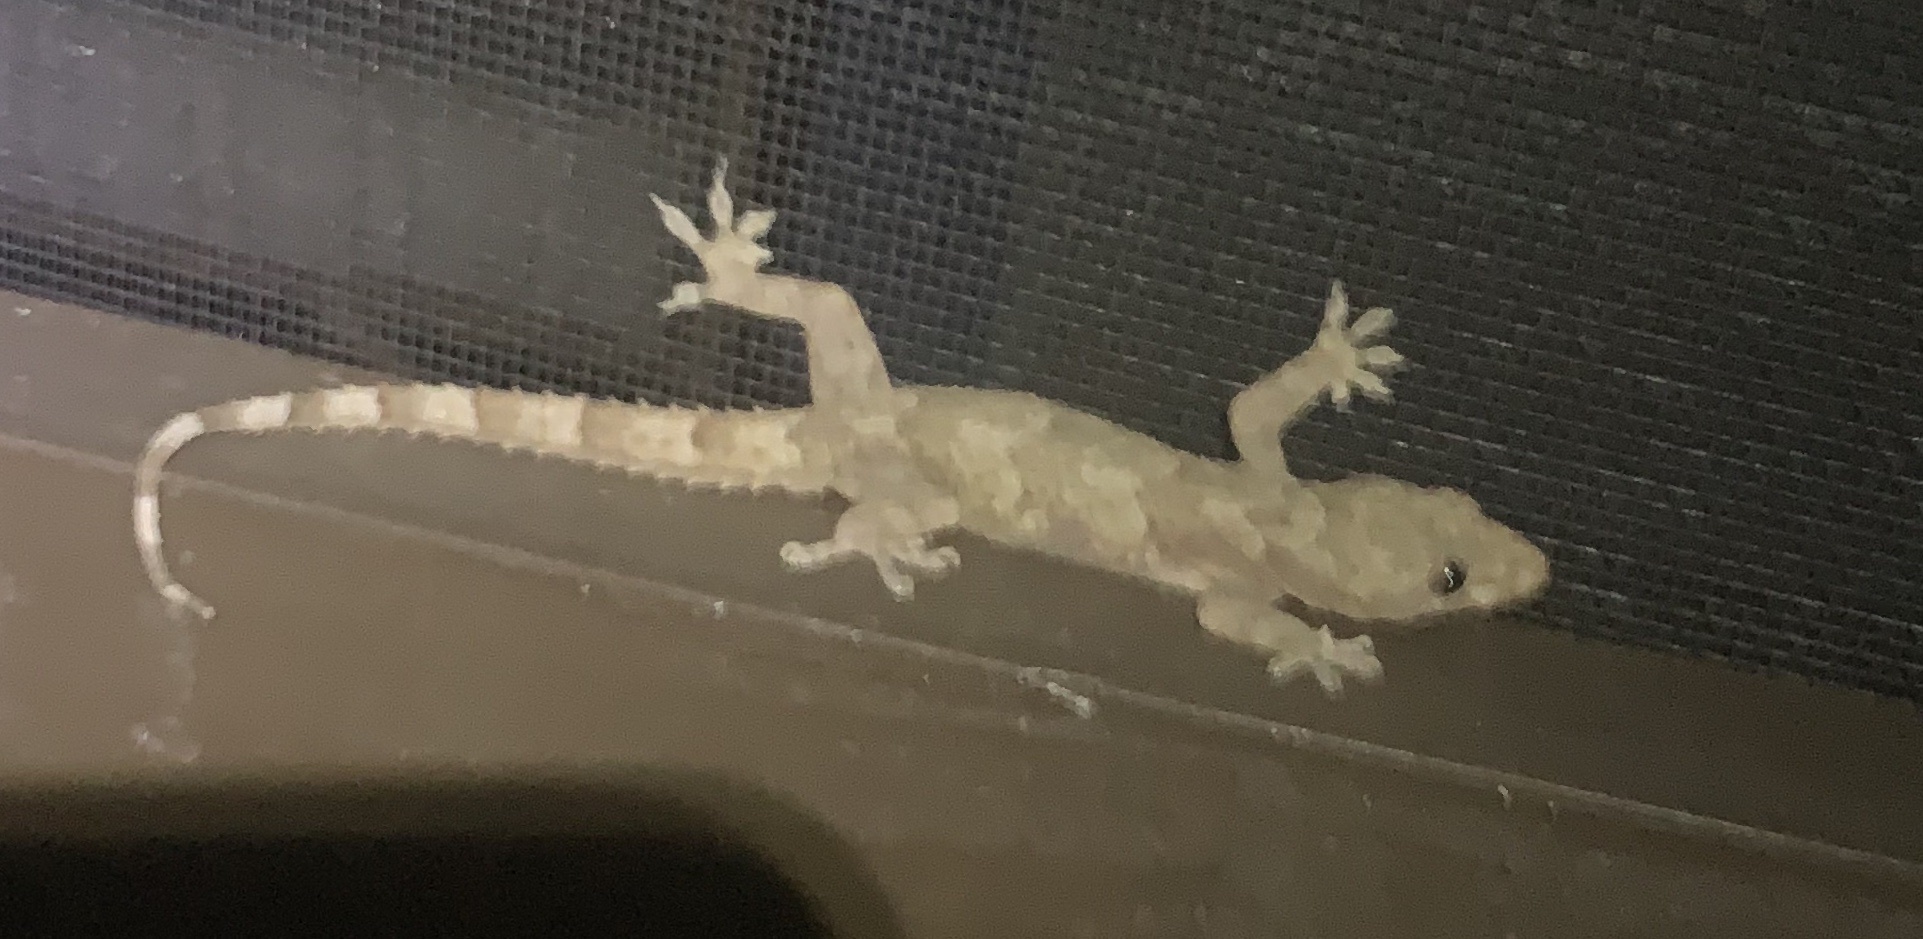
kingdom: Animalia
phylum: Chordata
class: Squamata
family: Gekkonidae
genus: Hemidactylus
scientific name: Hemidactylus mabouia
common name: House gecko
